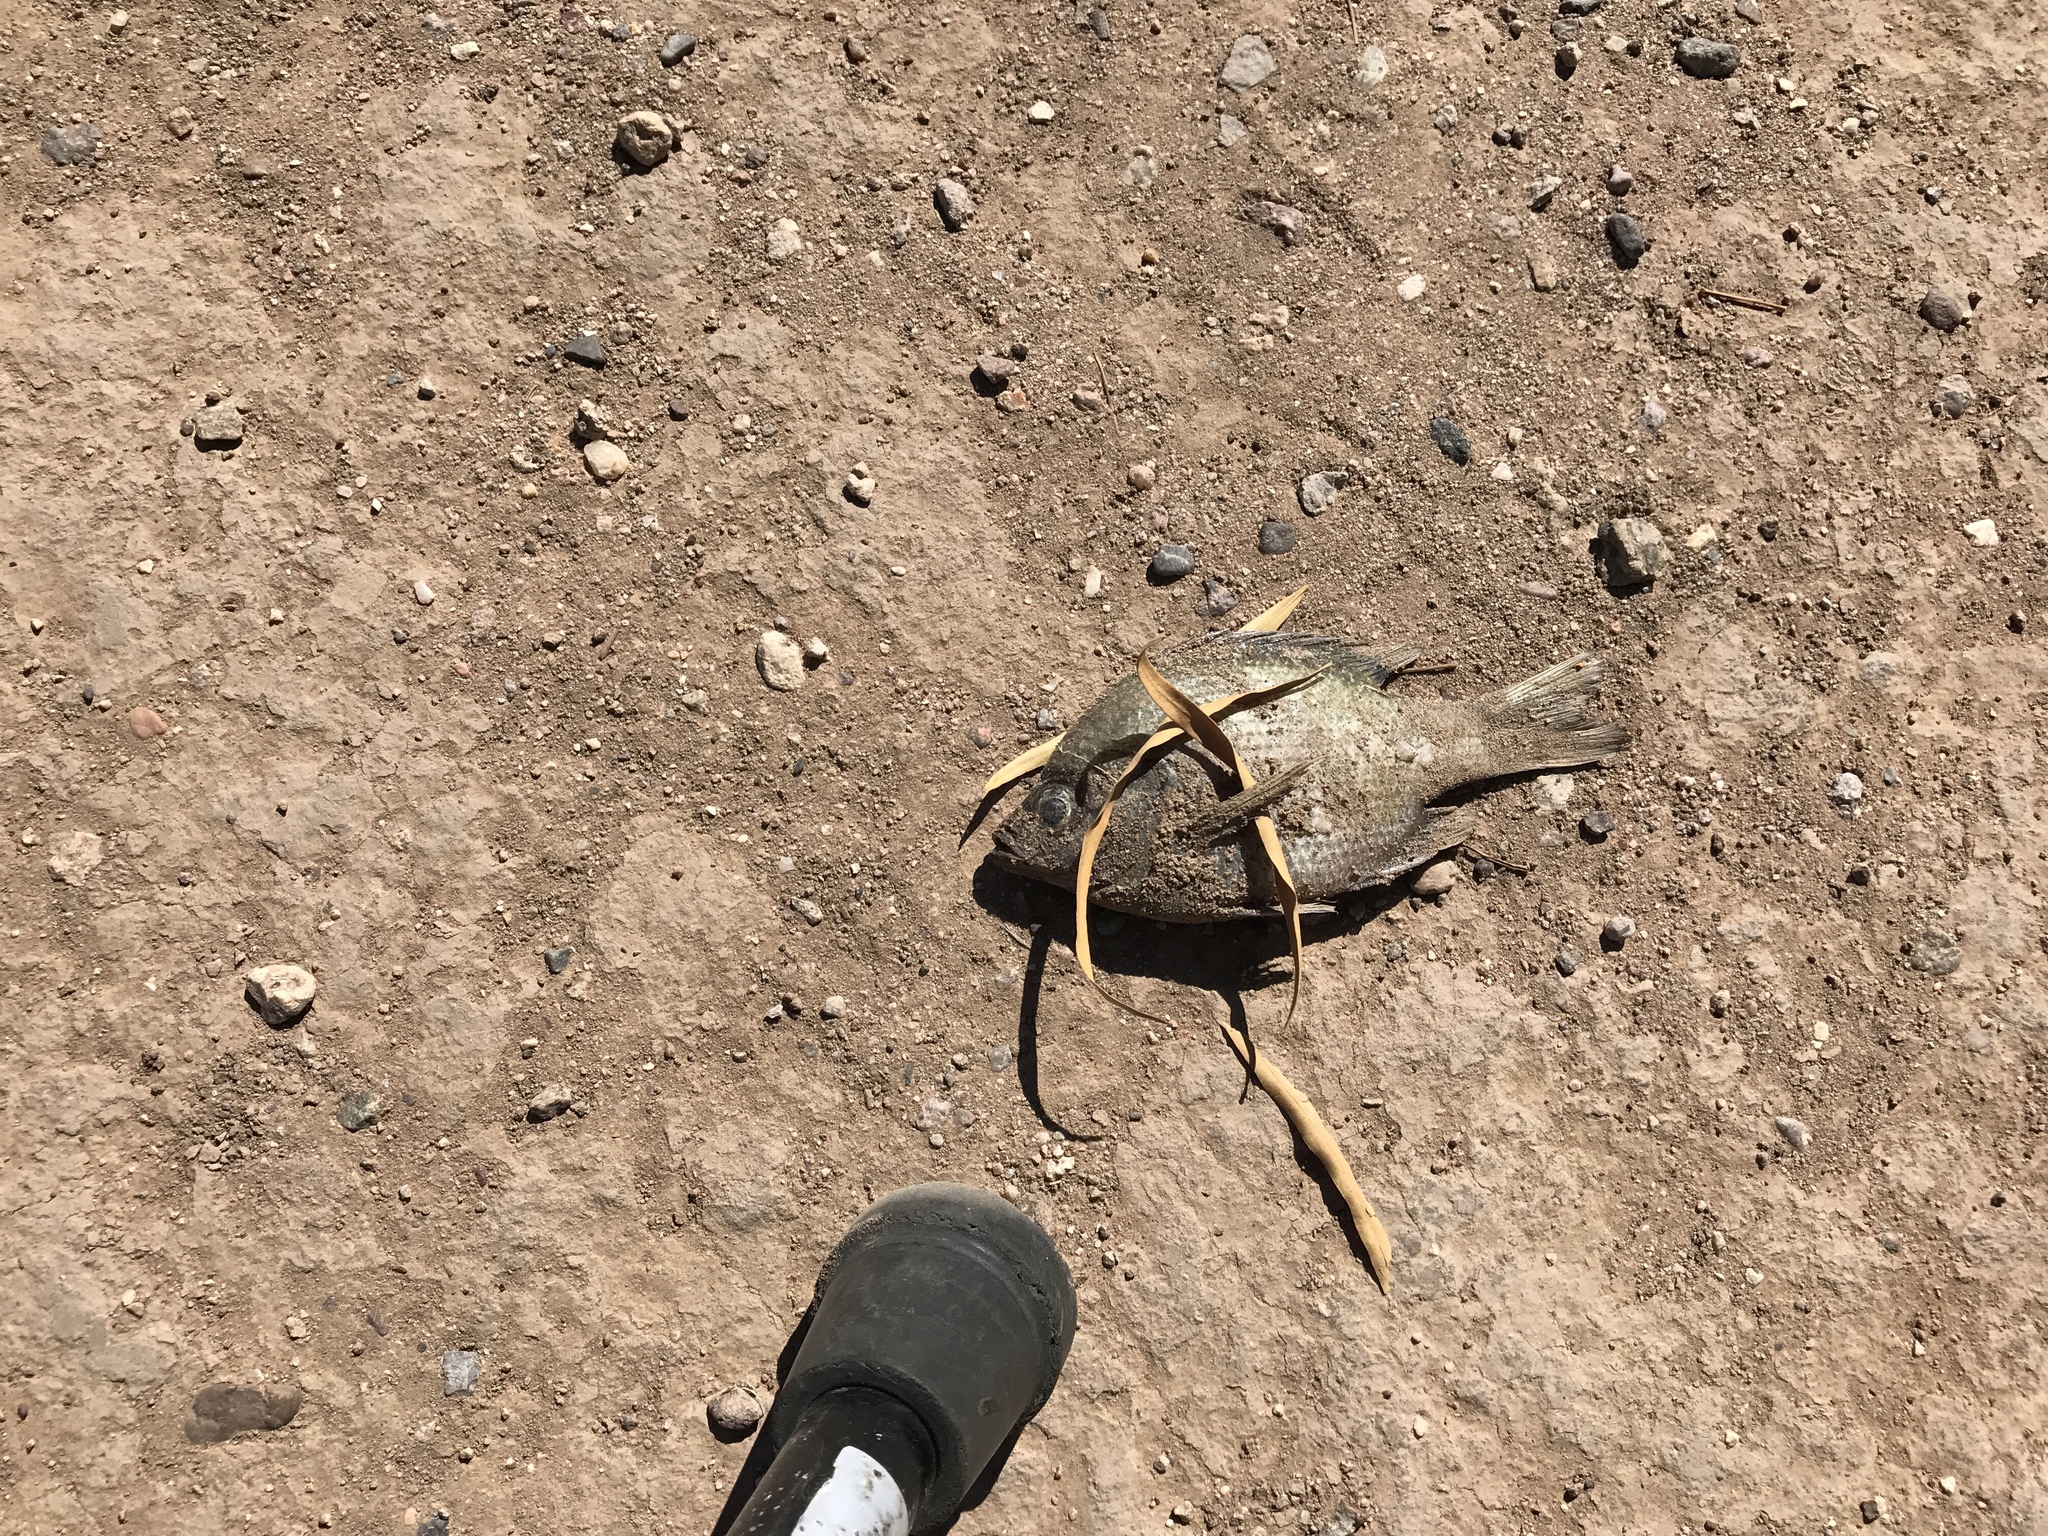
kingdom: Animalia
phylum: Chordata
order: Perciformes
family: Centrarchidae
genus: Lepomis
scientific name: Lepomis macrochirus
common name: Bluegill
